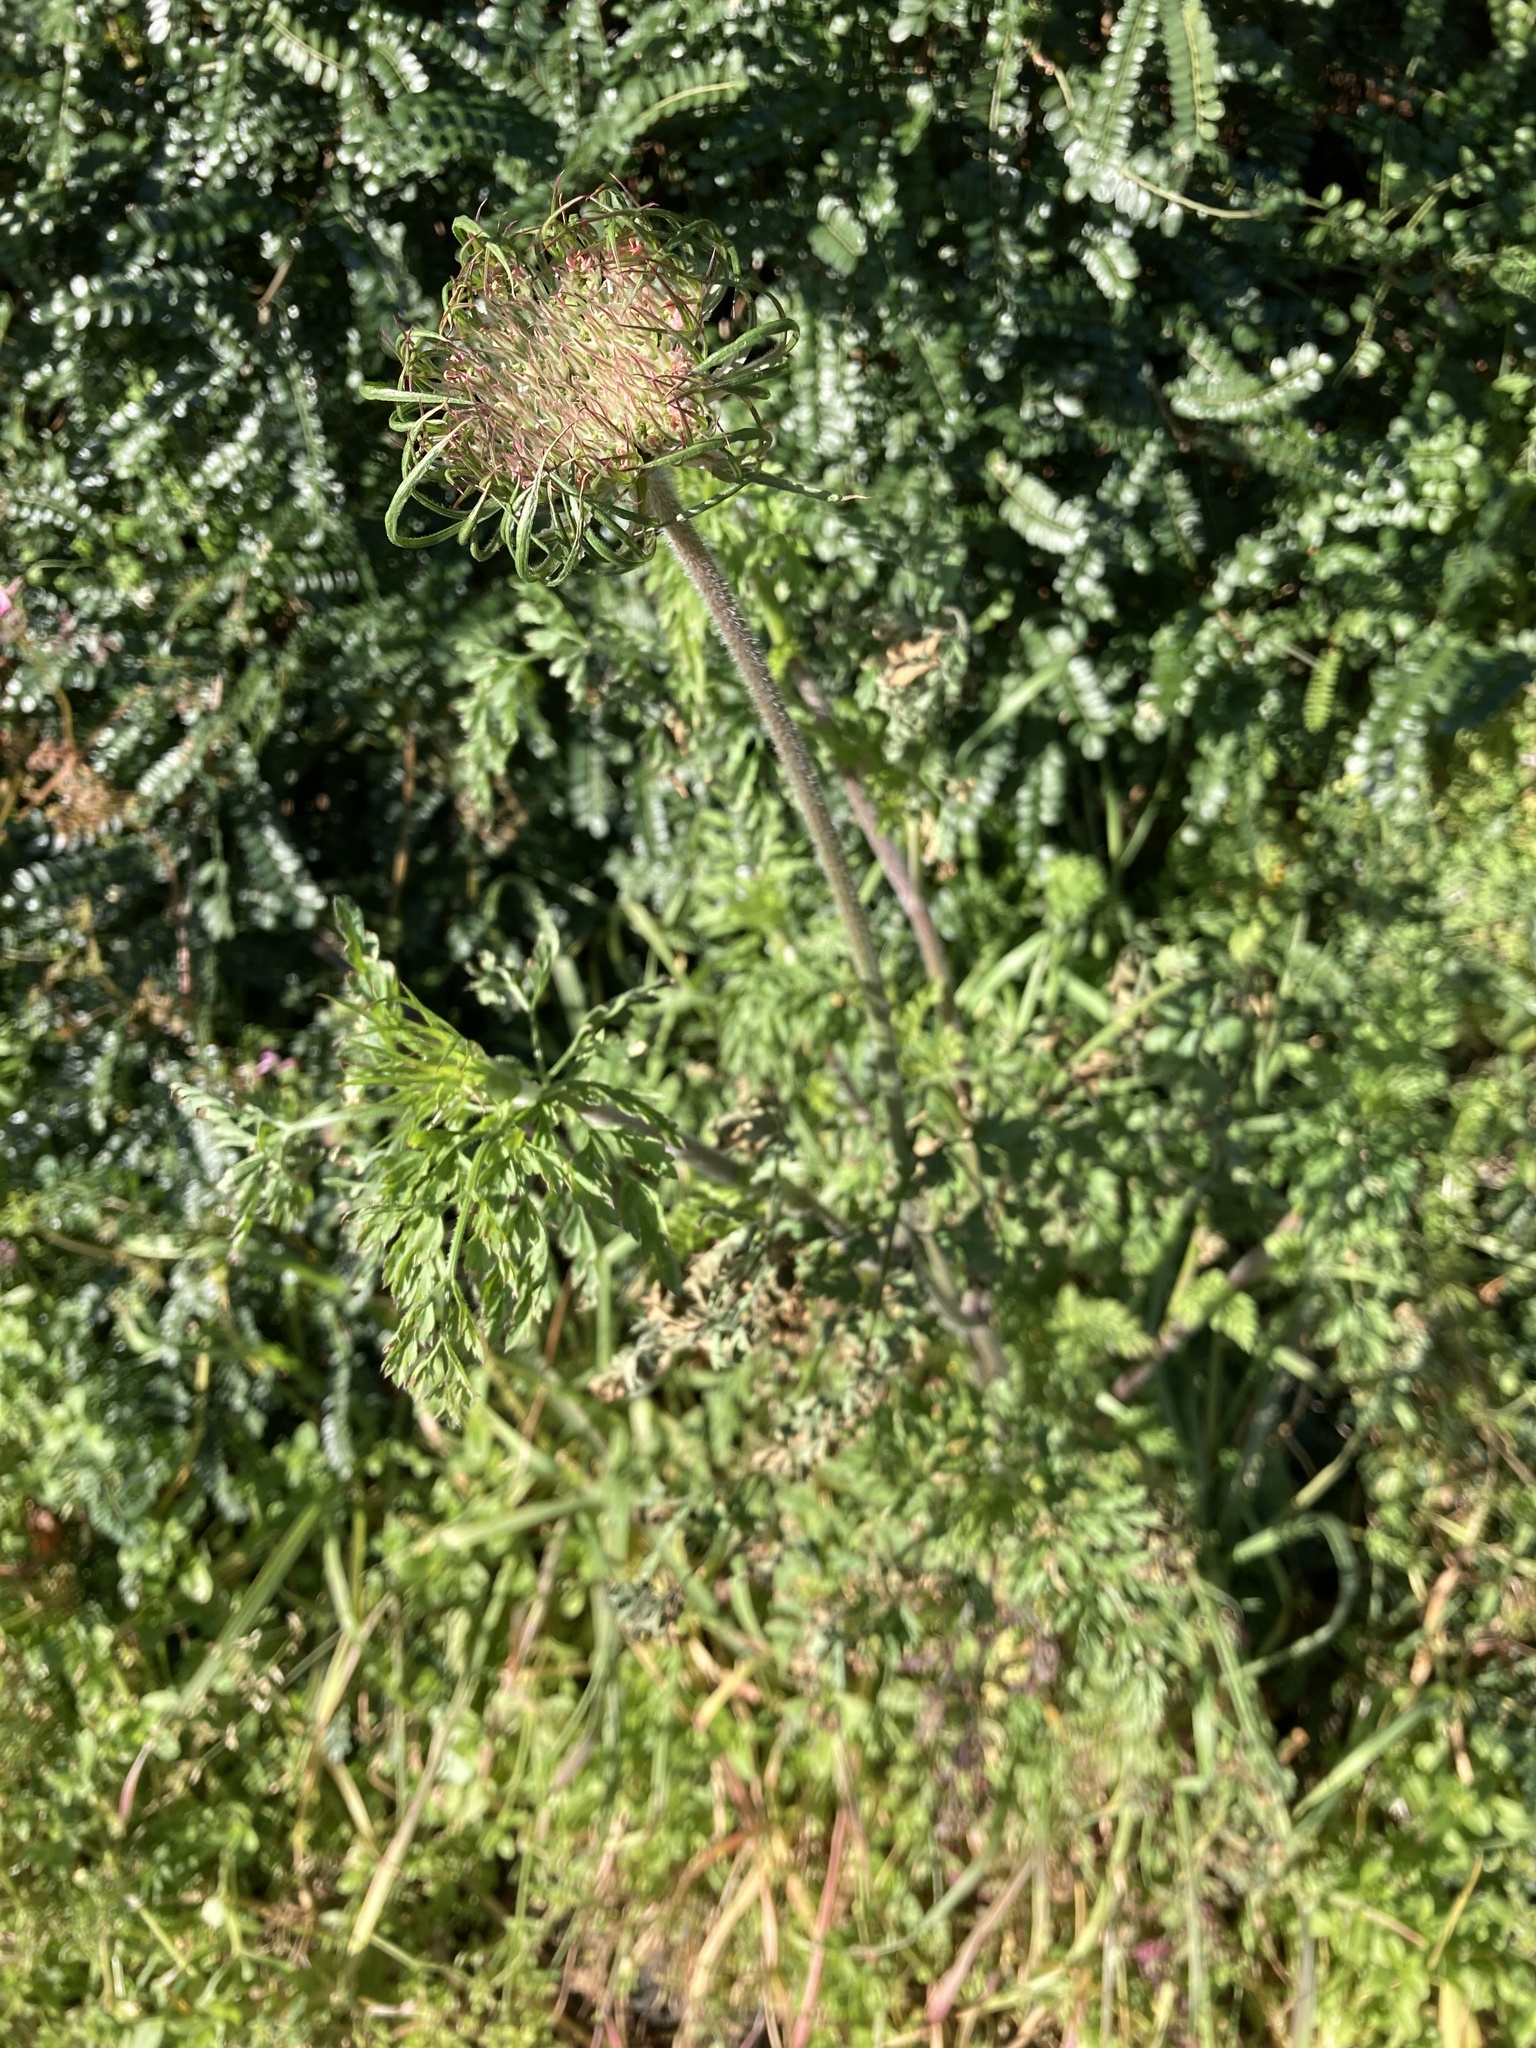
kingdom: Plantae
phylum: Tracheophyta
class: Magnoliopsida
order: Apiales
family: Apiaceae
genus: Daucus
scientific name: Daucus carota
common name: Wild carrot
